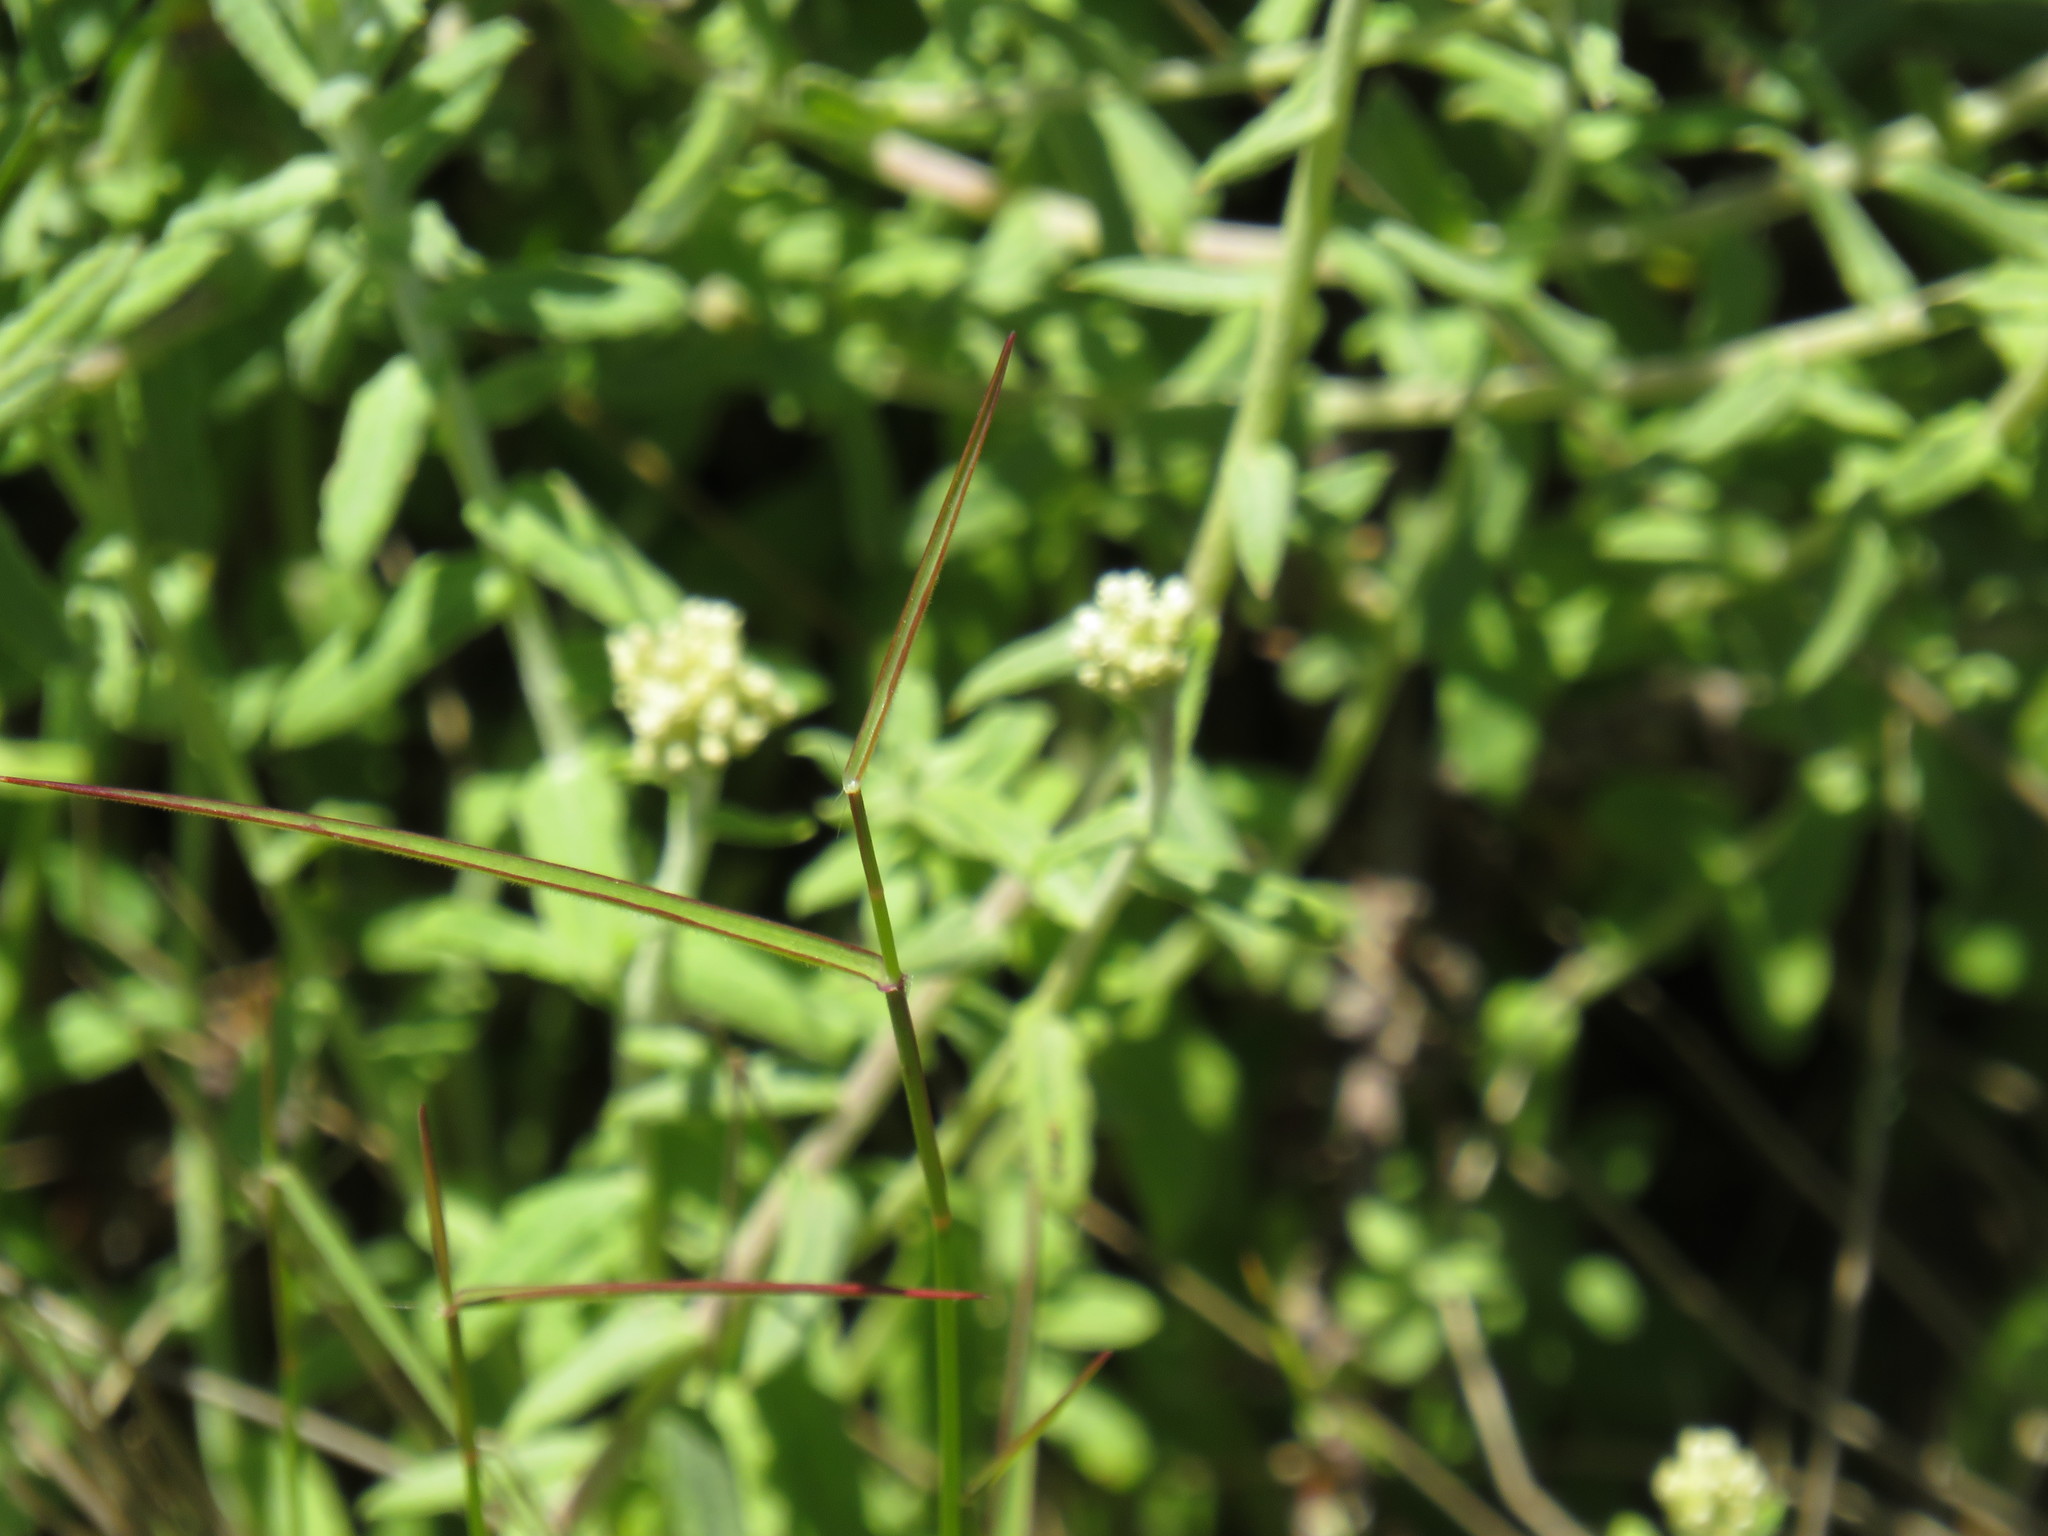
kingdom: Plantae
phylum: Tracheophyta
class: Liliopsida
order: Poales
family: Poaceae
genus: Ehrharta
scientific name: Ehrharta brevifolia
